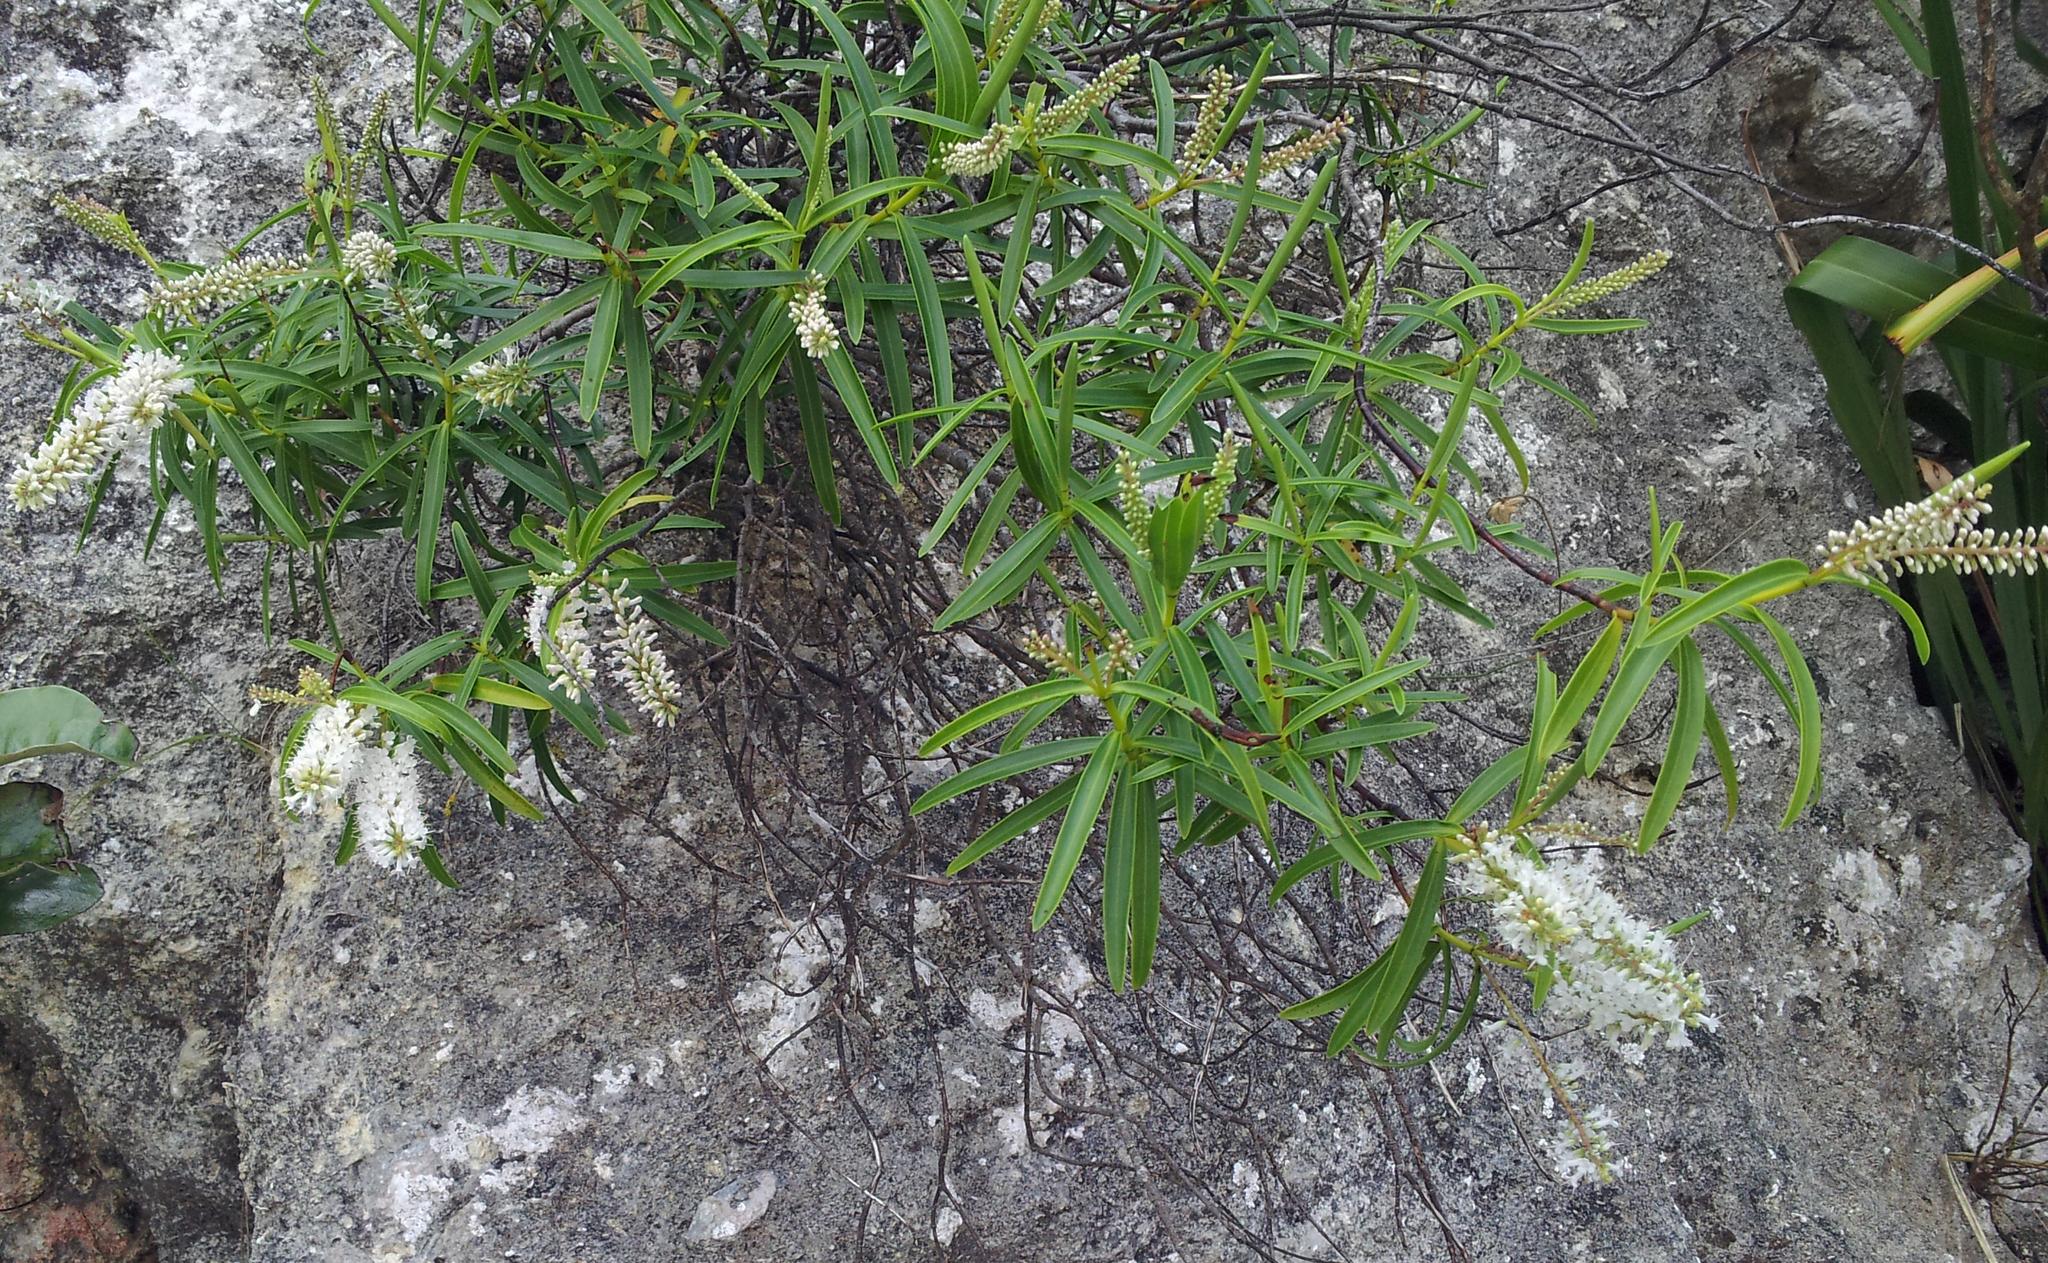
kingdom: Plantae
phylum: Tracheophyta
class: Magnoliopsida
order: Lamiales
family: Plantaginaceae
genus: Veronica
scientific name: Veronica stenophylla
